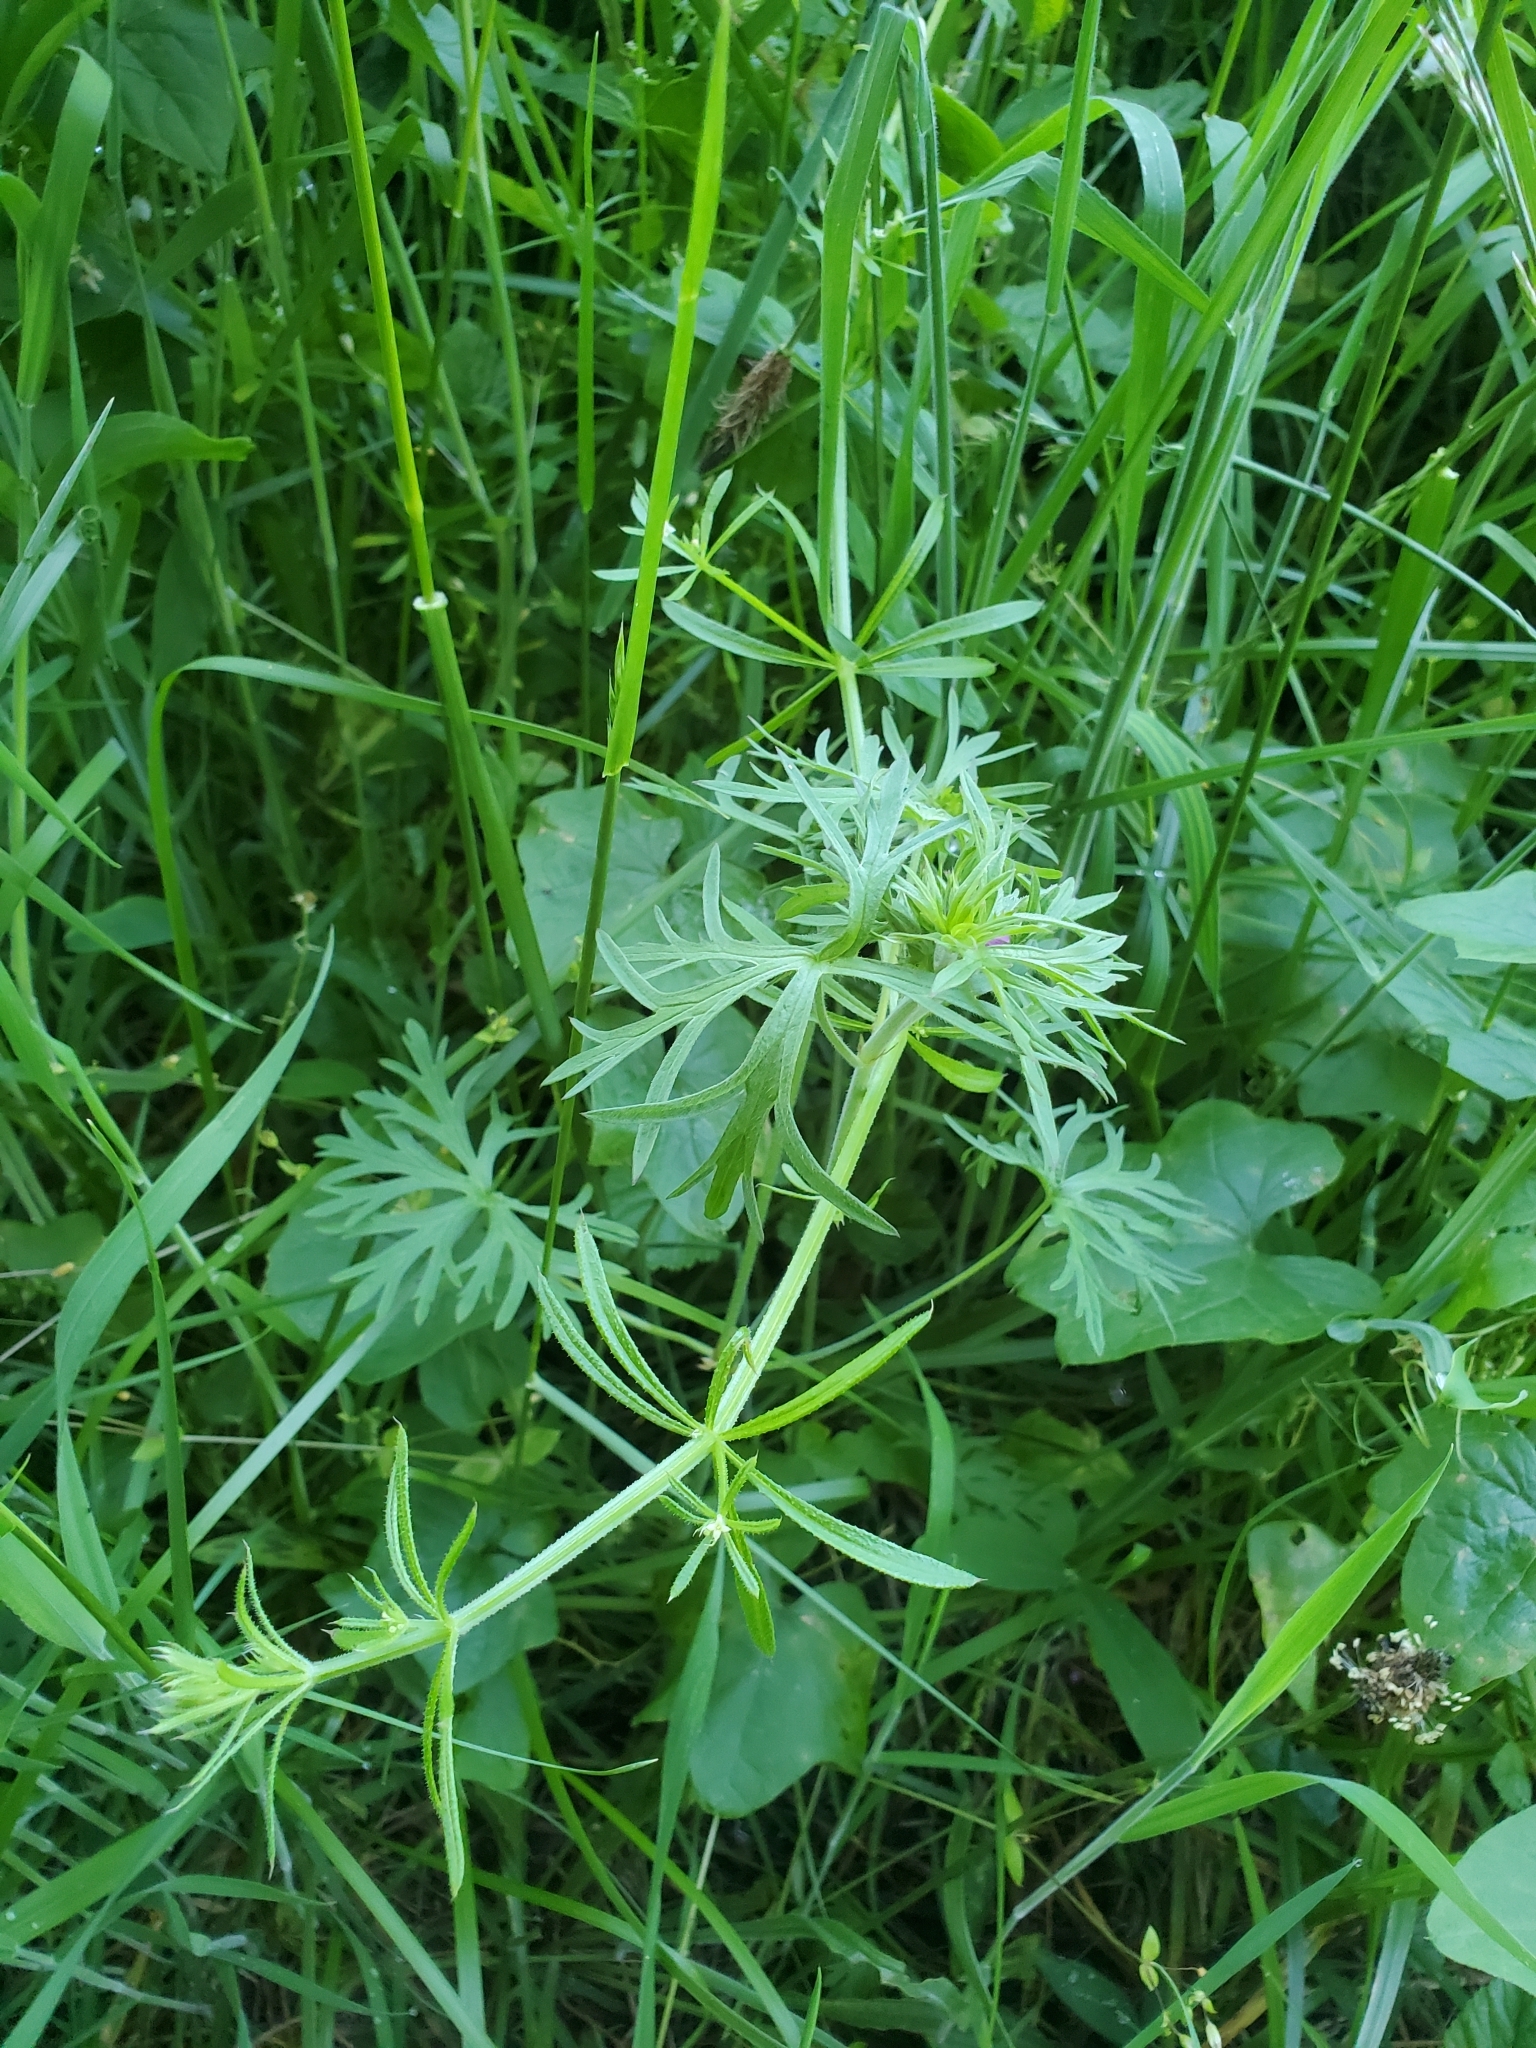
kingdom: Plantae
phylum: Tracheophyta
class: Magnoliopsida
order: Geraniales
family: Geraniaceae
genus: Geranium
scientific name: Geranium dissectum
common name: Cut-leaved crane's-bill
